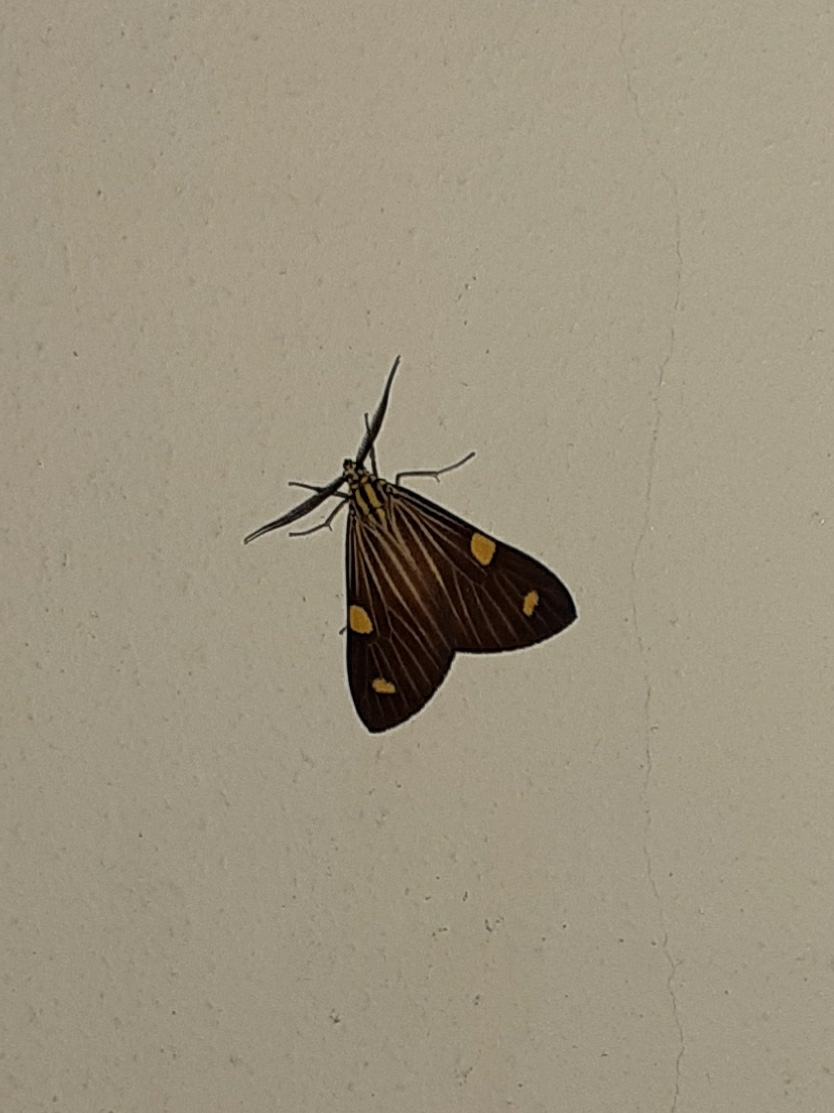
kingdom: Animalia
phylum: Arthropoda
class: Insecta
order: Lepidoptera
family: Notodontidae
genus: Phaeochlaena
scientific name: Phaeochlaena
